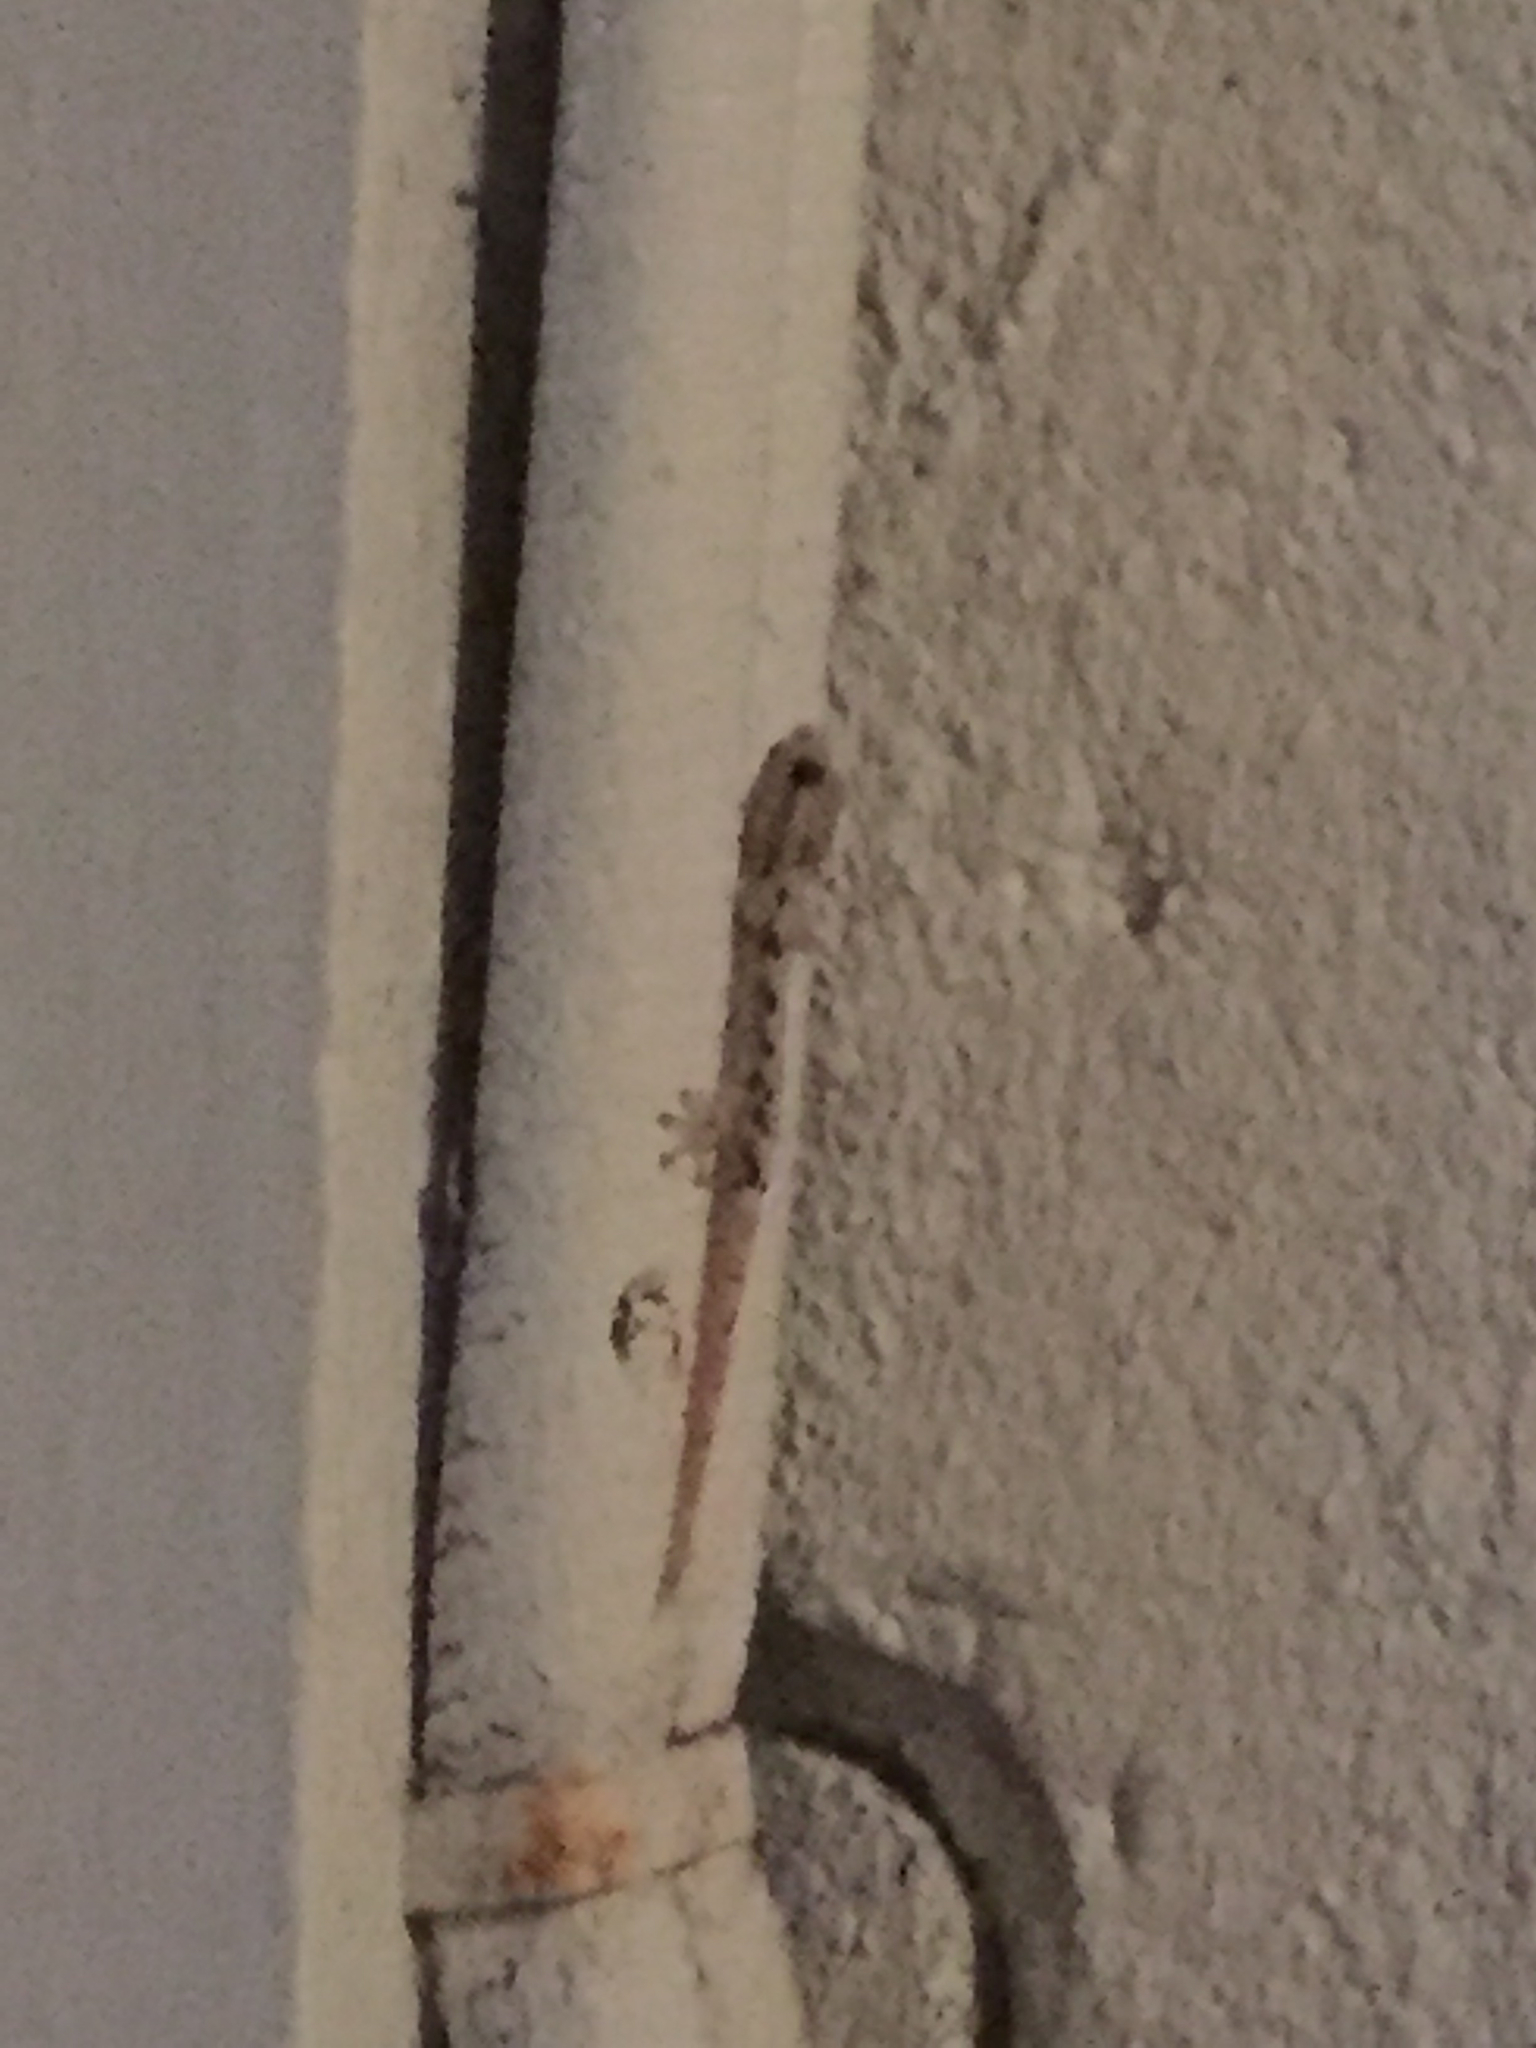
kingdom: Animalia
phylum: Chordata
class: Squamata
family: Gekkonidae
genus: Lepidodactylus
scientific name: Lepidodactylus lugubris
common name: Mourning gecko
